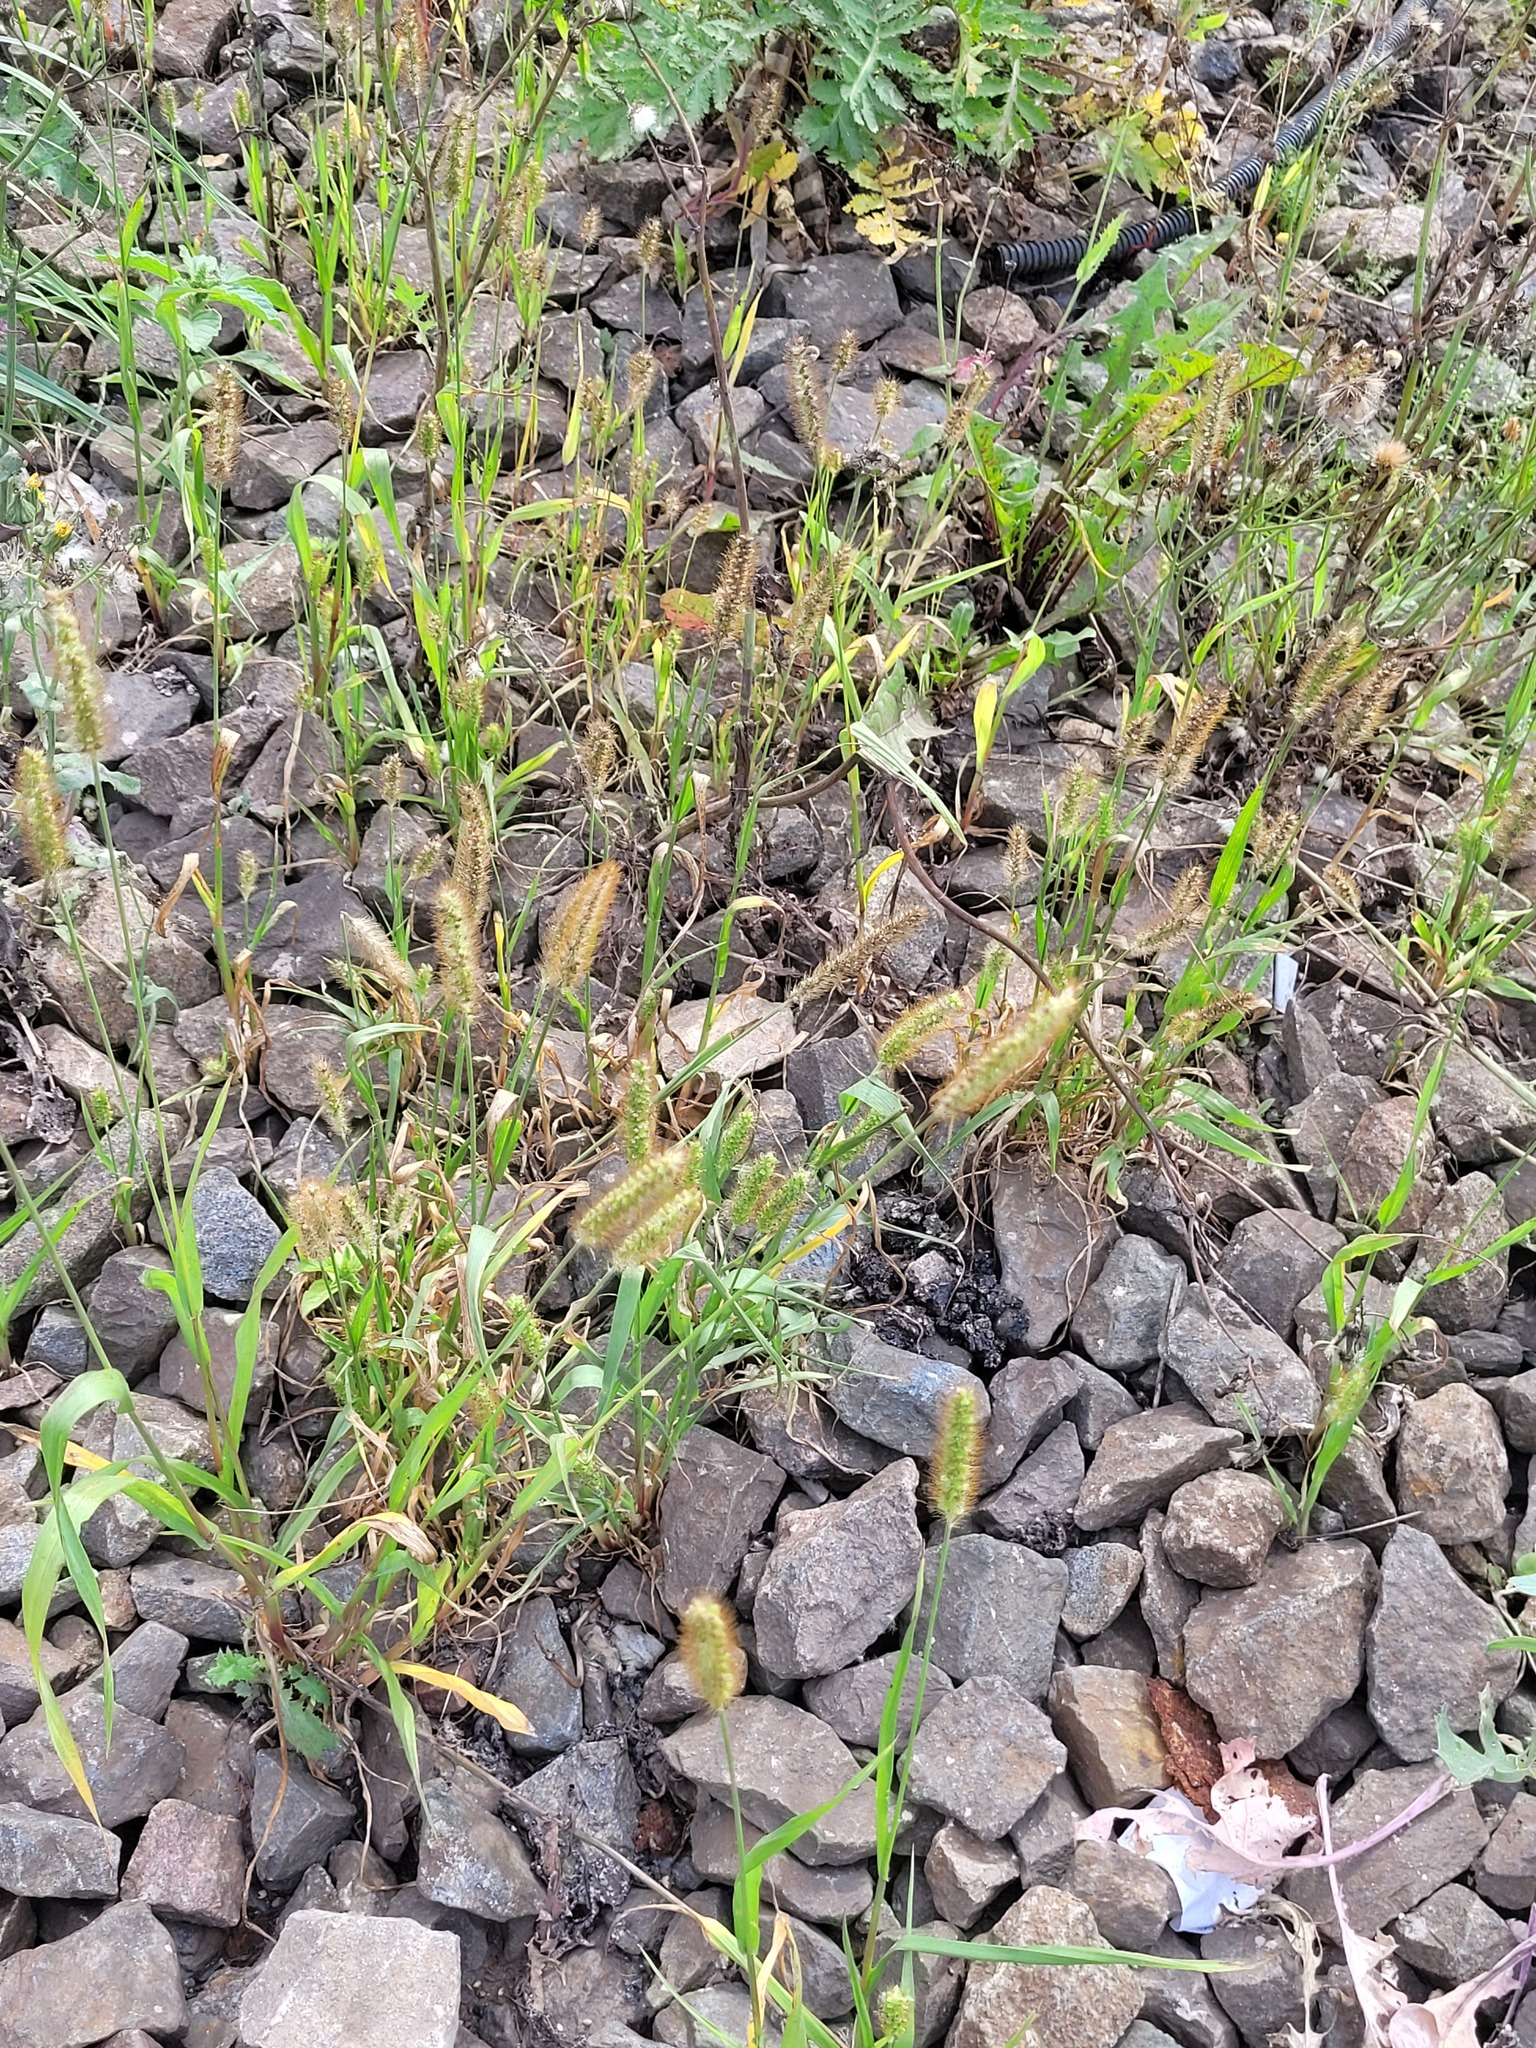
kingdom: Plantae
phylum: Tracheophyta
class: Liliopsida
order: Poales
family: Poaceae
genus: Setaria
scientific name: Setaria pumila
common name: Yellow bristle-grass
